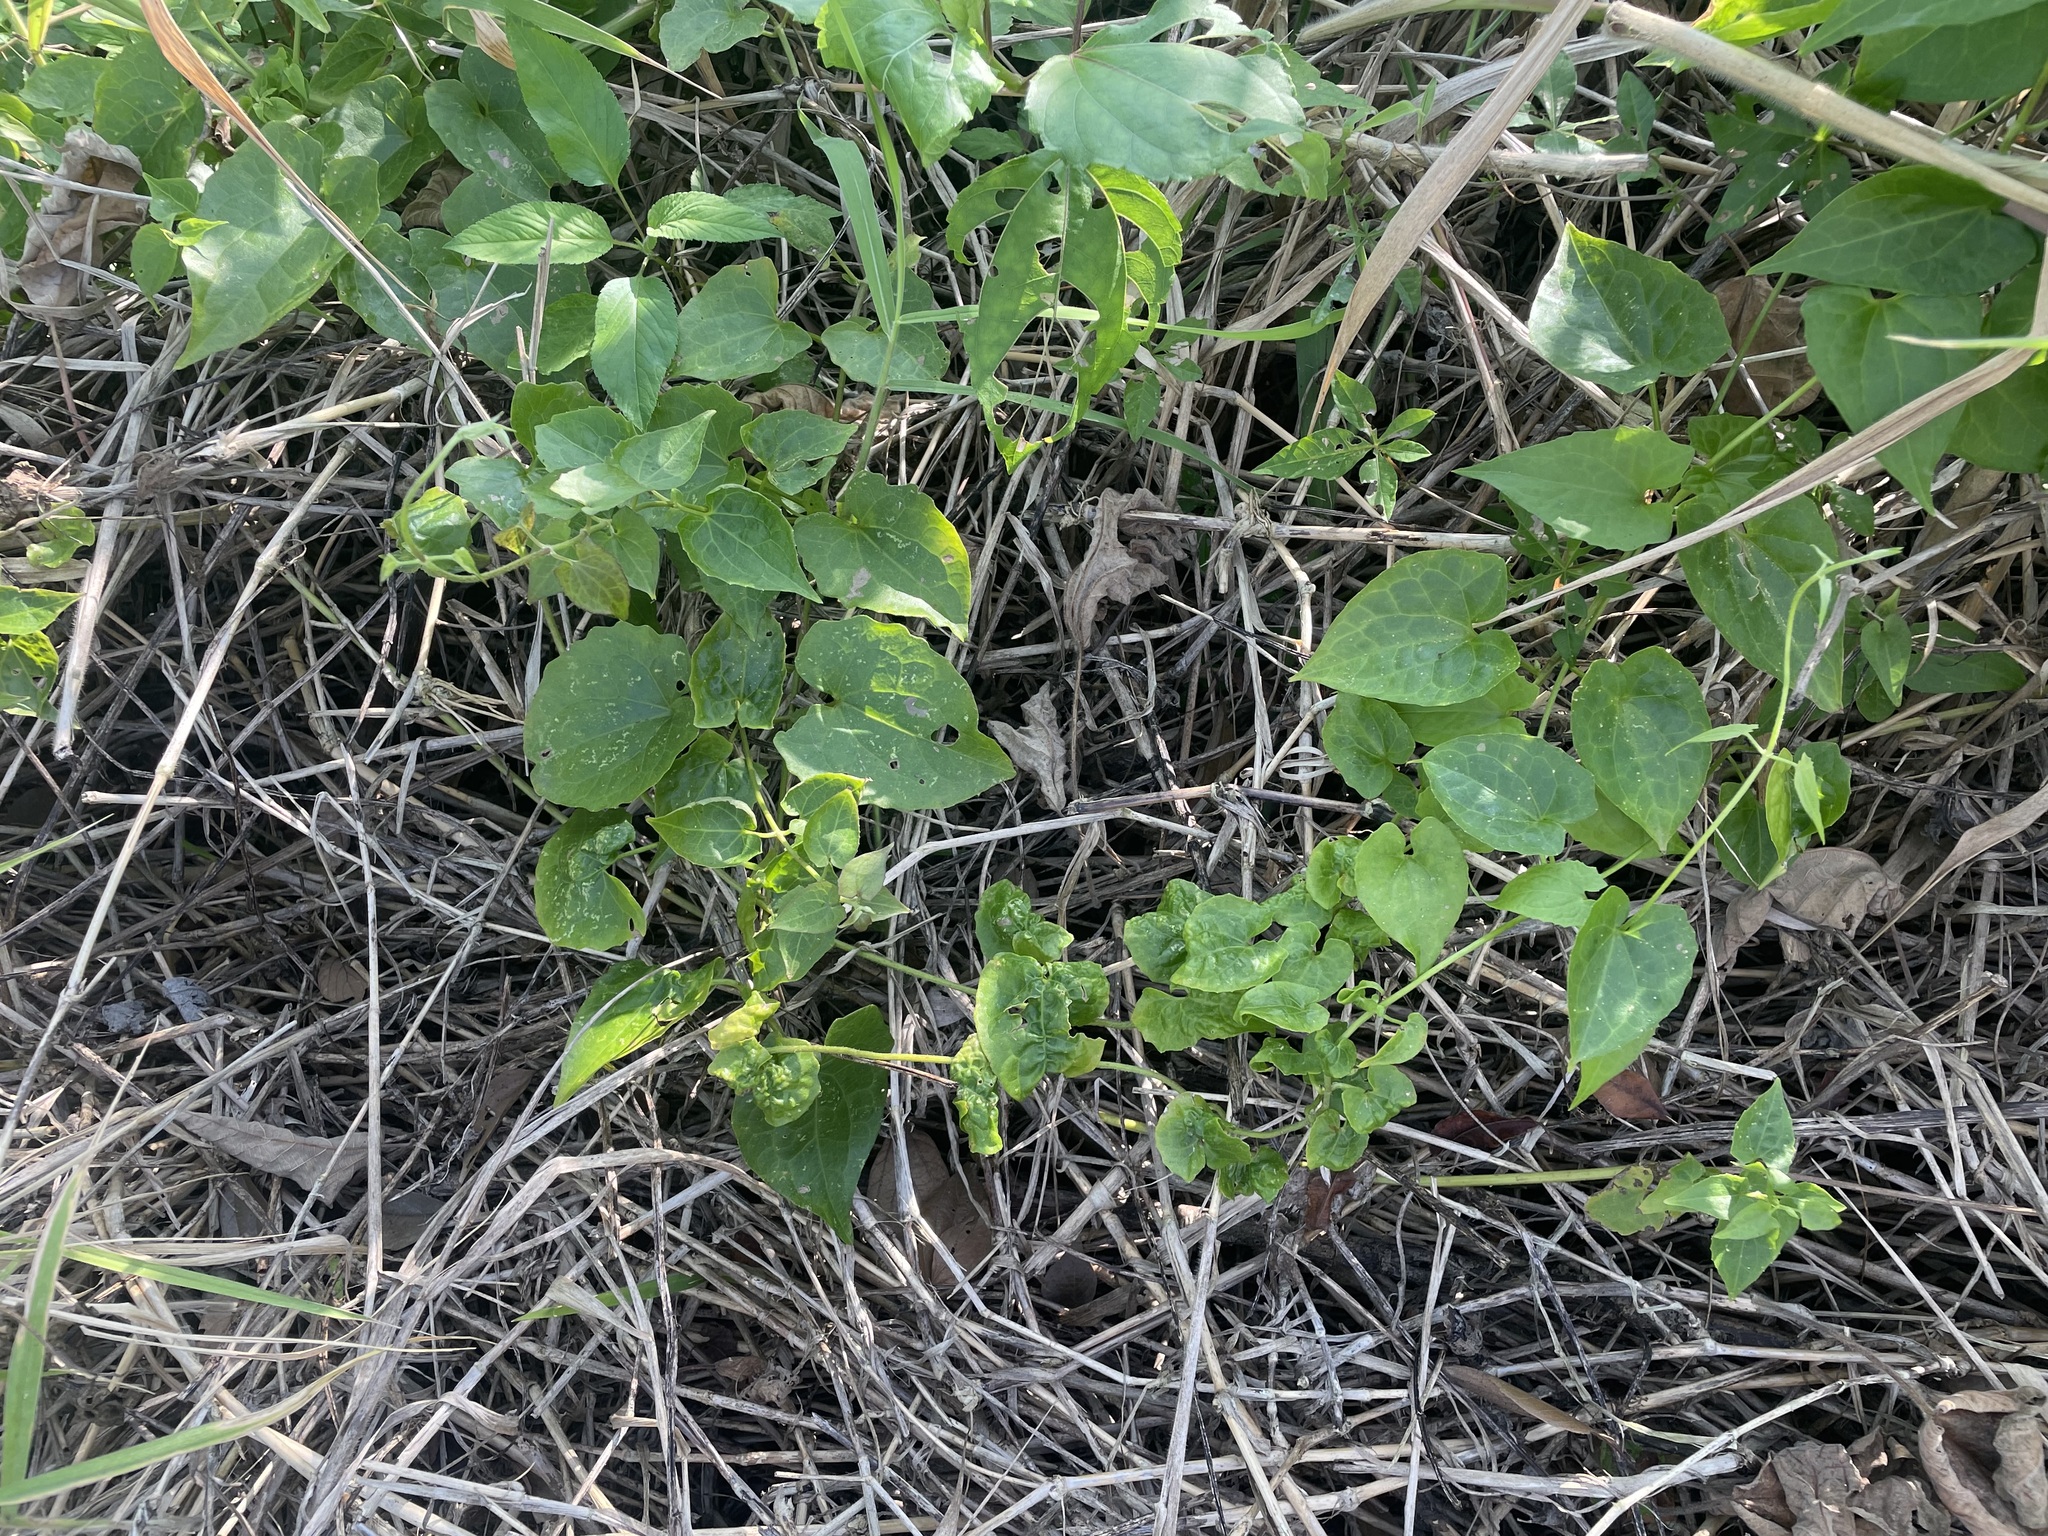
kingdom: Plantae
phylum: Tracheophyta
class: Magnoliopsida
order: Asterales
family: Asteraceae
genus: Mikania
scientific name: Mikania micrantha
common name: Mile-a-minute
